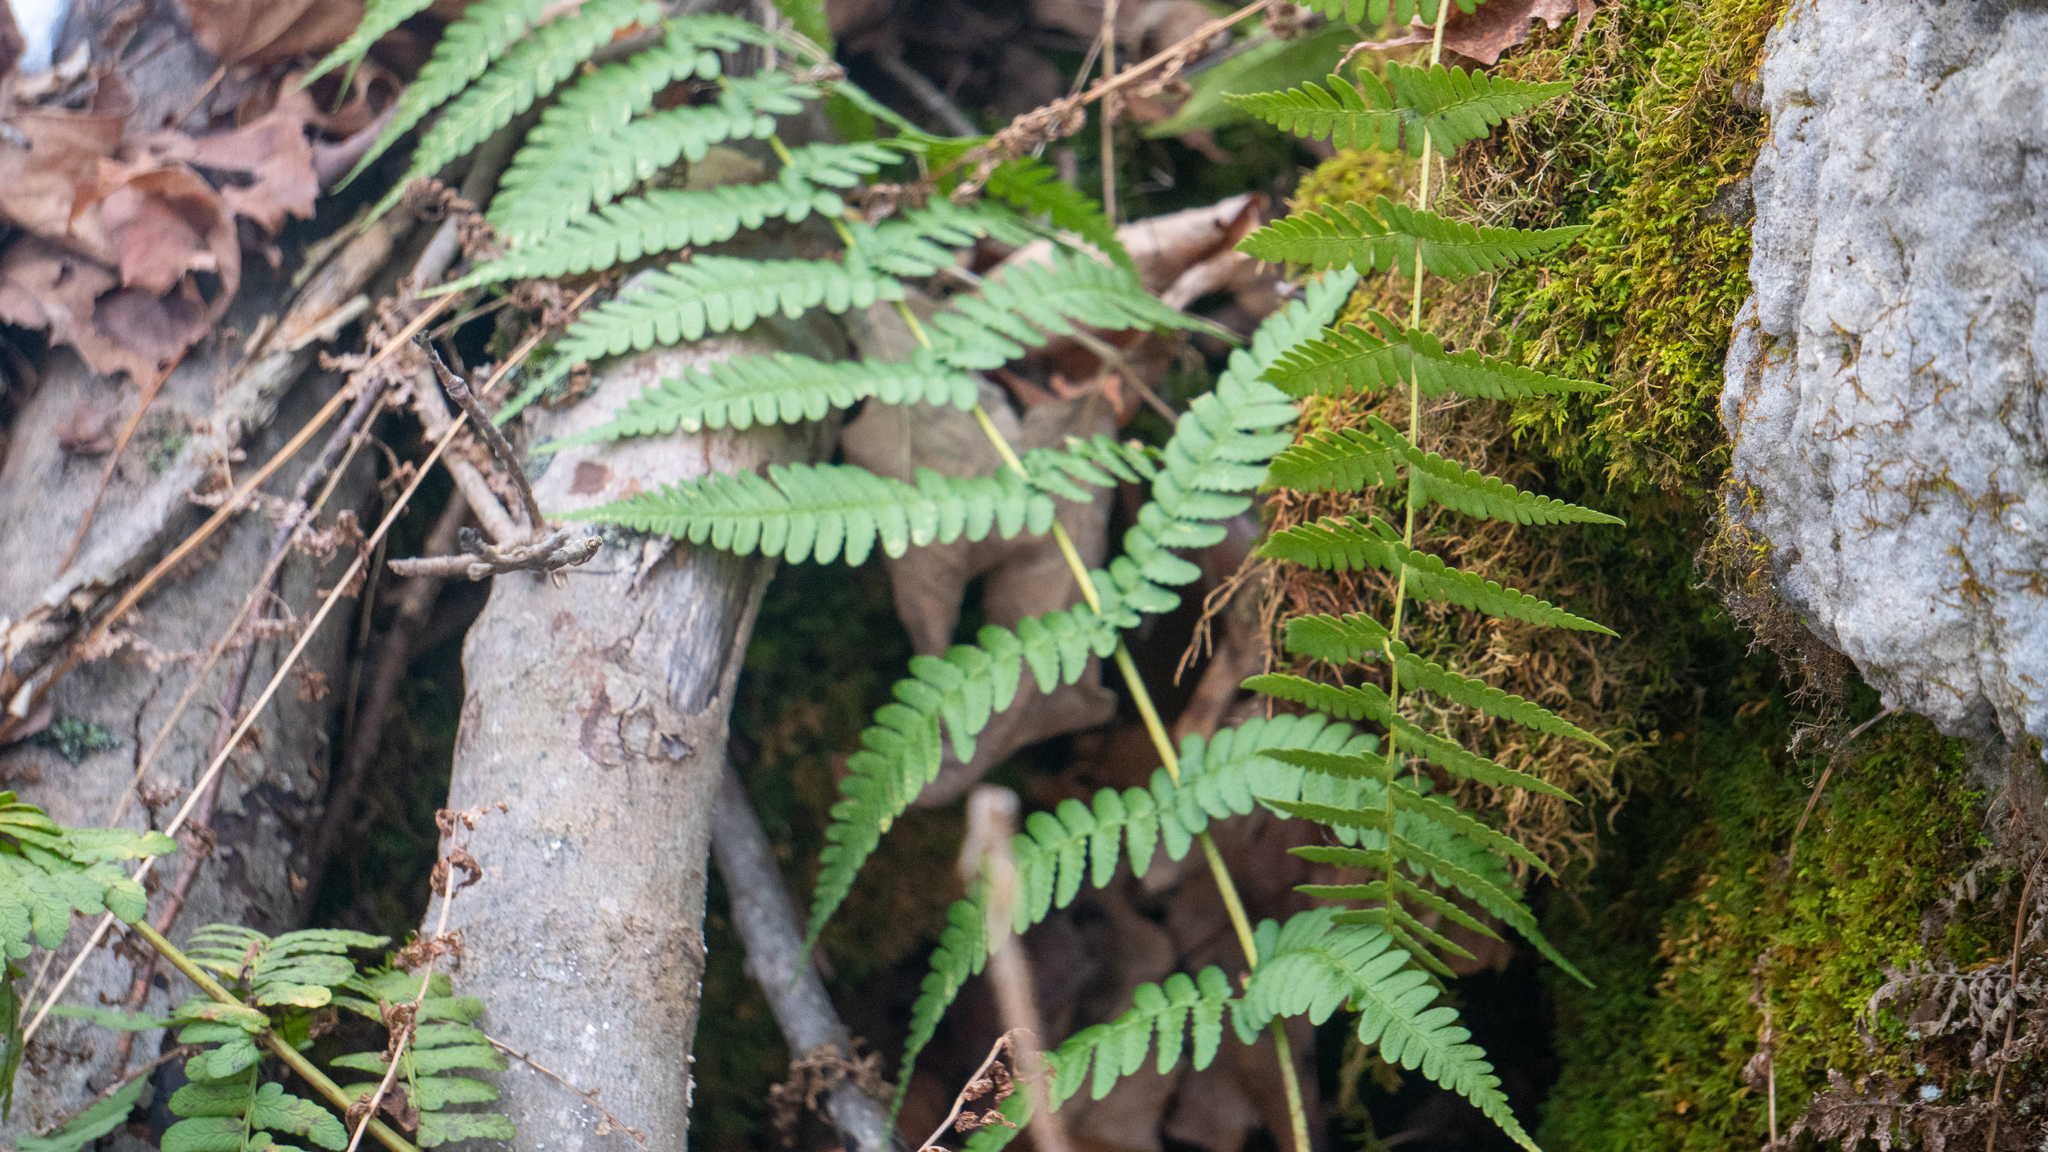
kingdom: Plantae
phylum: Tracheophyta
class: Polypodiopsida
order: Polypodiales
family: Dryopteridaceae
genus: Dryopteris
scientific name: Dryopteris marginalis
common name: Marginal wood fern
